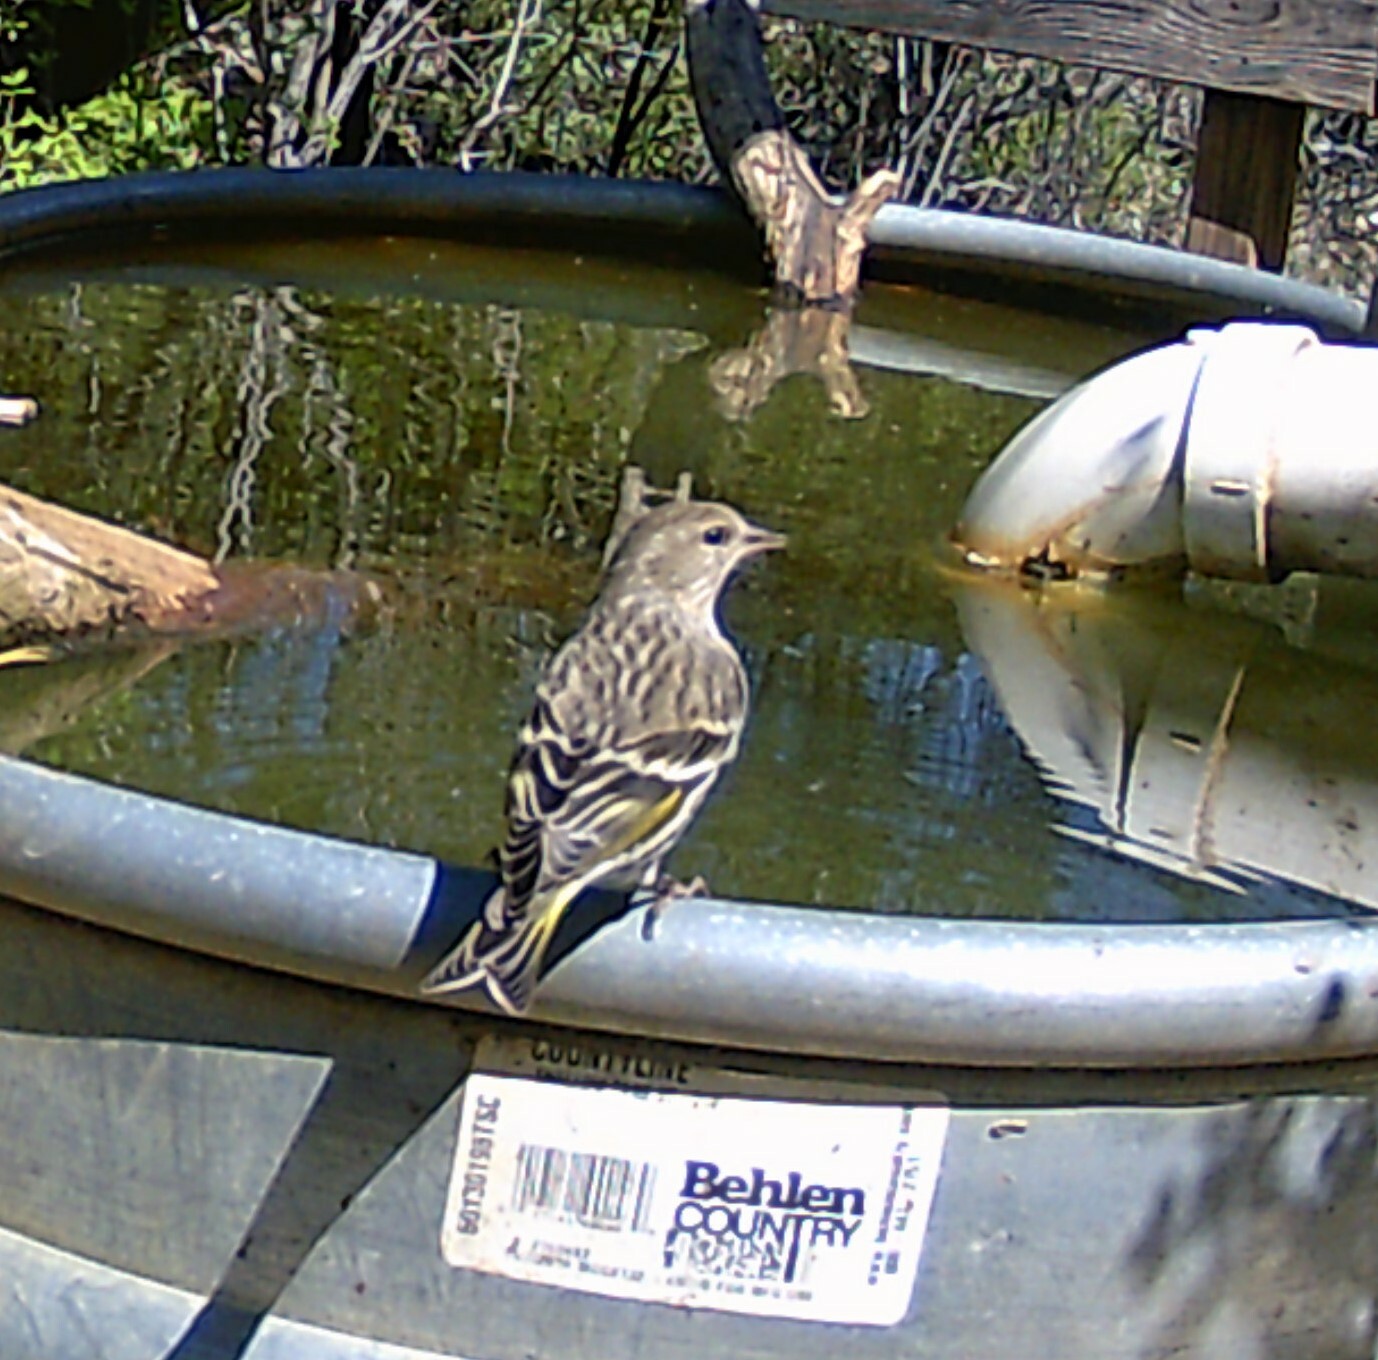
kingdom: Animalia
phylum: Chordata
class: Aves
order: Passeriformes
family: Fringillidae
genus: Spinus
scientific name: Spinus pinus
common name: Pine siskin
